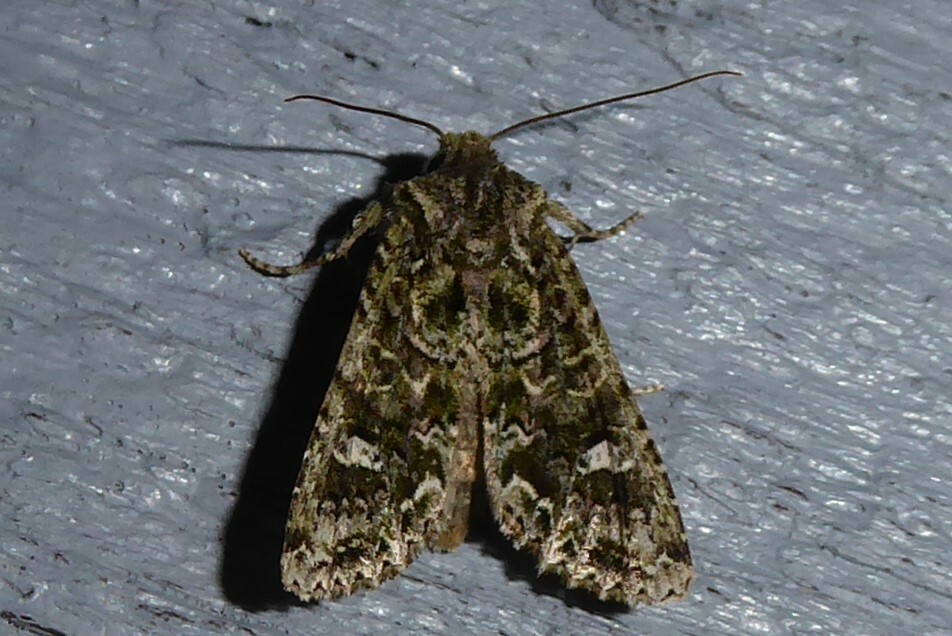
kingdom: Animalia
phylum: Arthropoda
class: Insecta
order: Lepidoptera
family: Noctuidae
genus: Ichneutica
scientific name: Ichneutica
